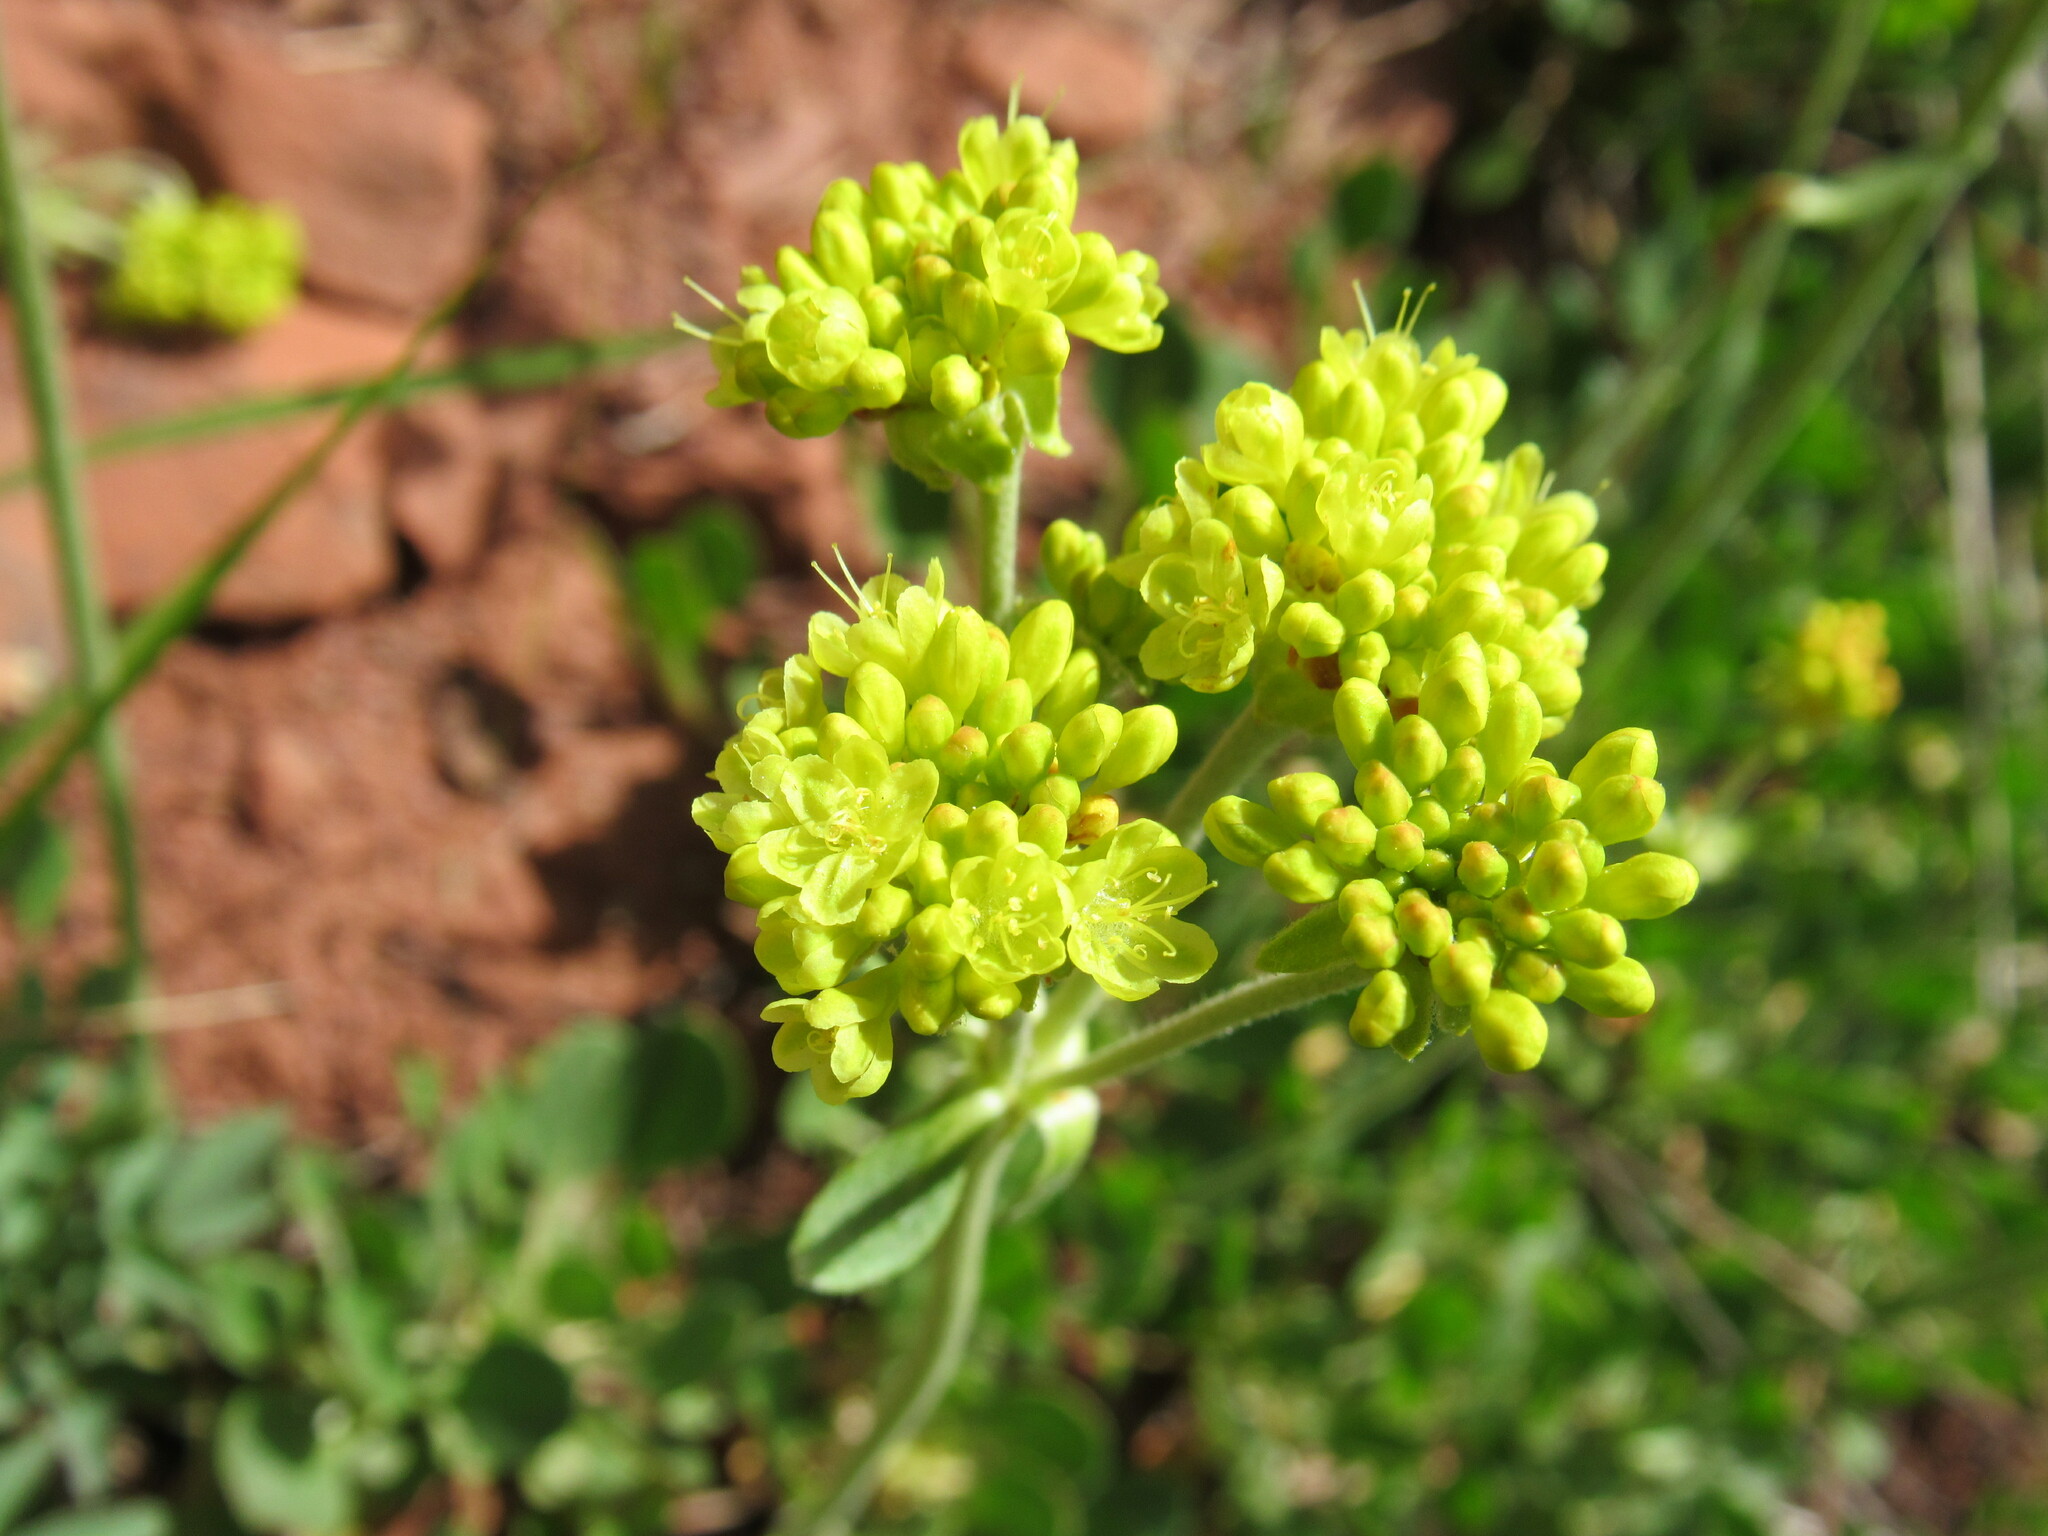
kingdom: Plantae
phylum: Tracheophyta
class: Magnoliopsida
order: Caryophyllales
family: Polygonaceae
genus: Eriogonum
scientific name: Eriogonum umbellatum
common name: Sulfur-buckwheat
